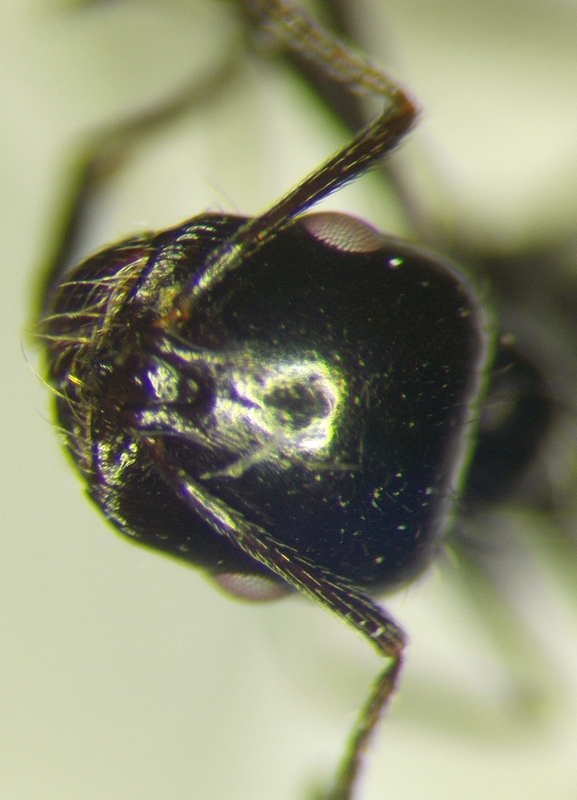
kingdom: Animalia
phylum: Arthropoda
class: Insecta
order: Hymenoptera
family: Formicidae
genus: Messor
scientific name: Messor pergandei
